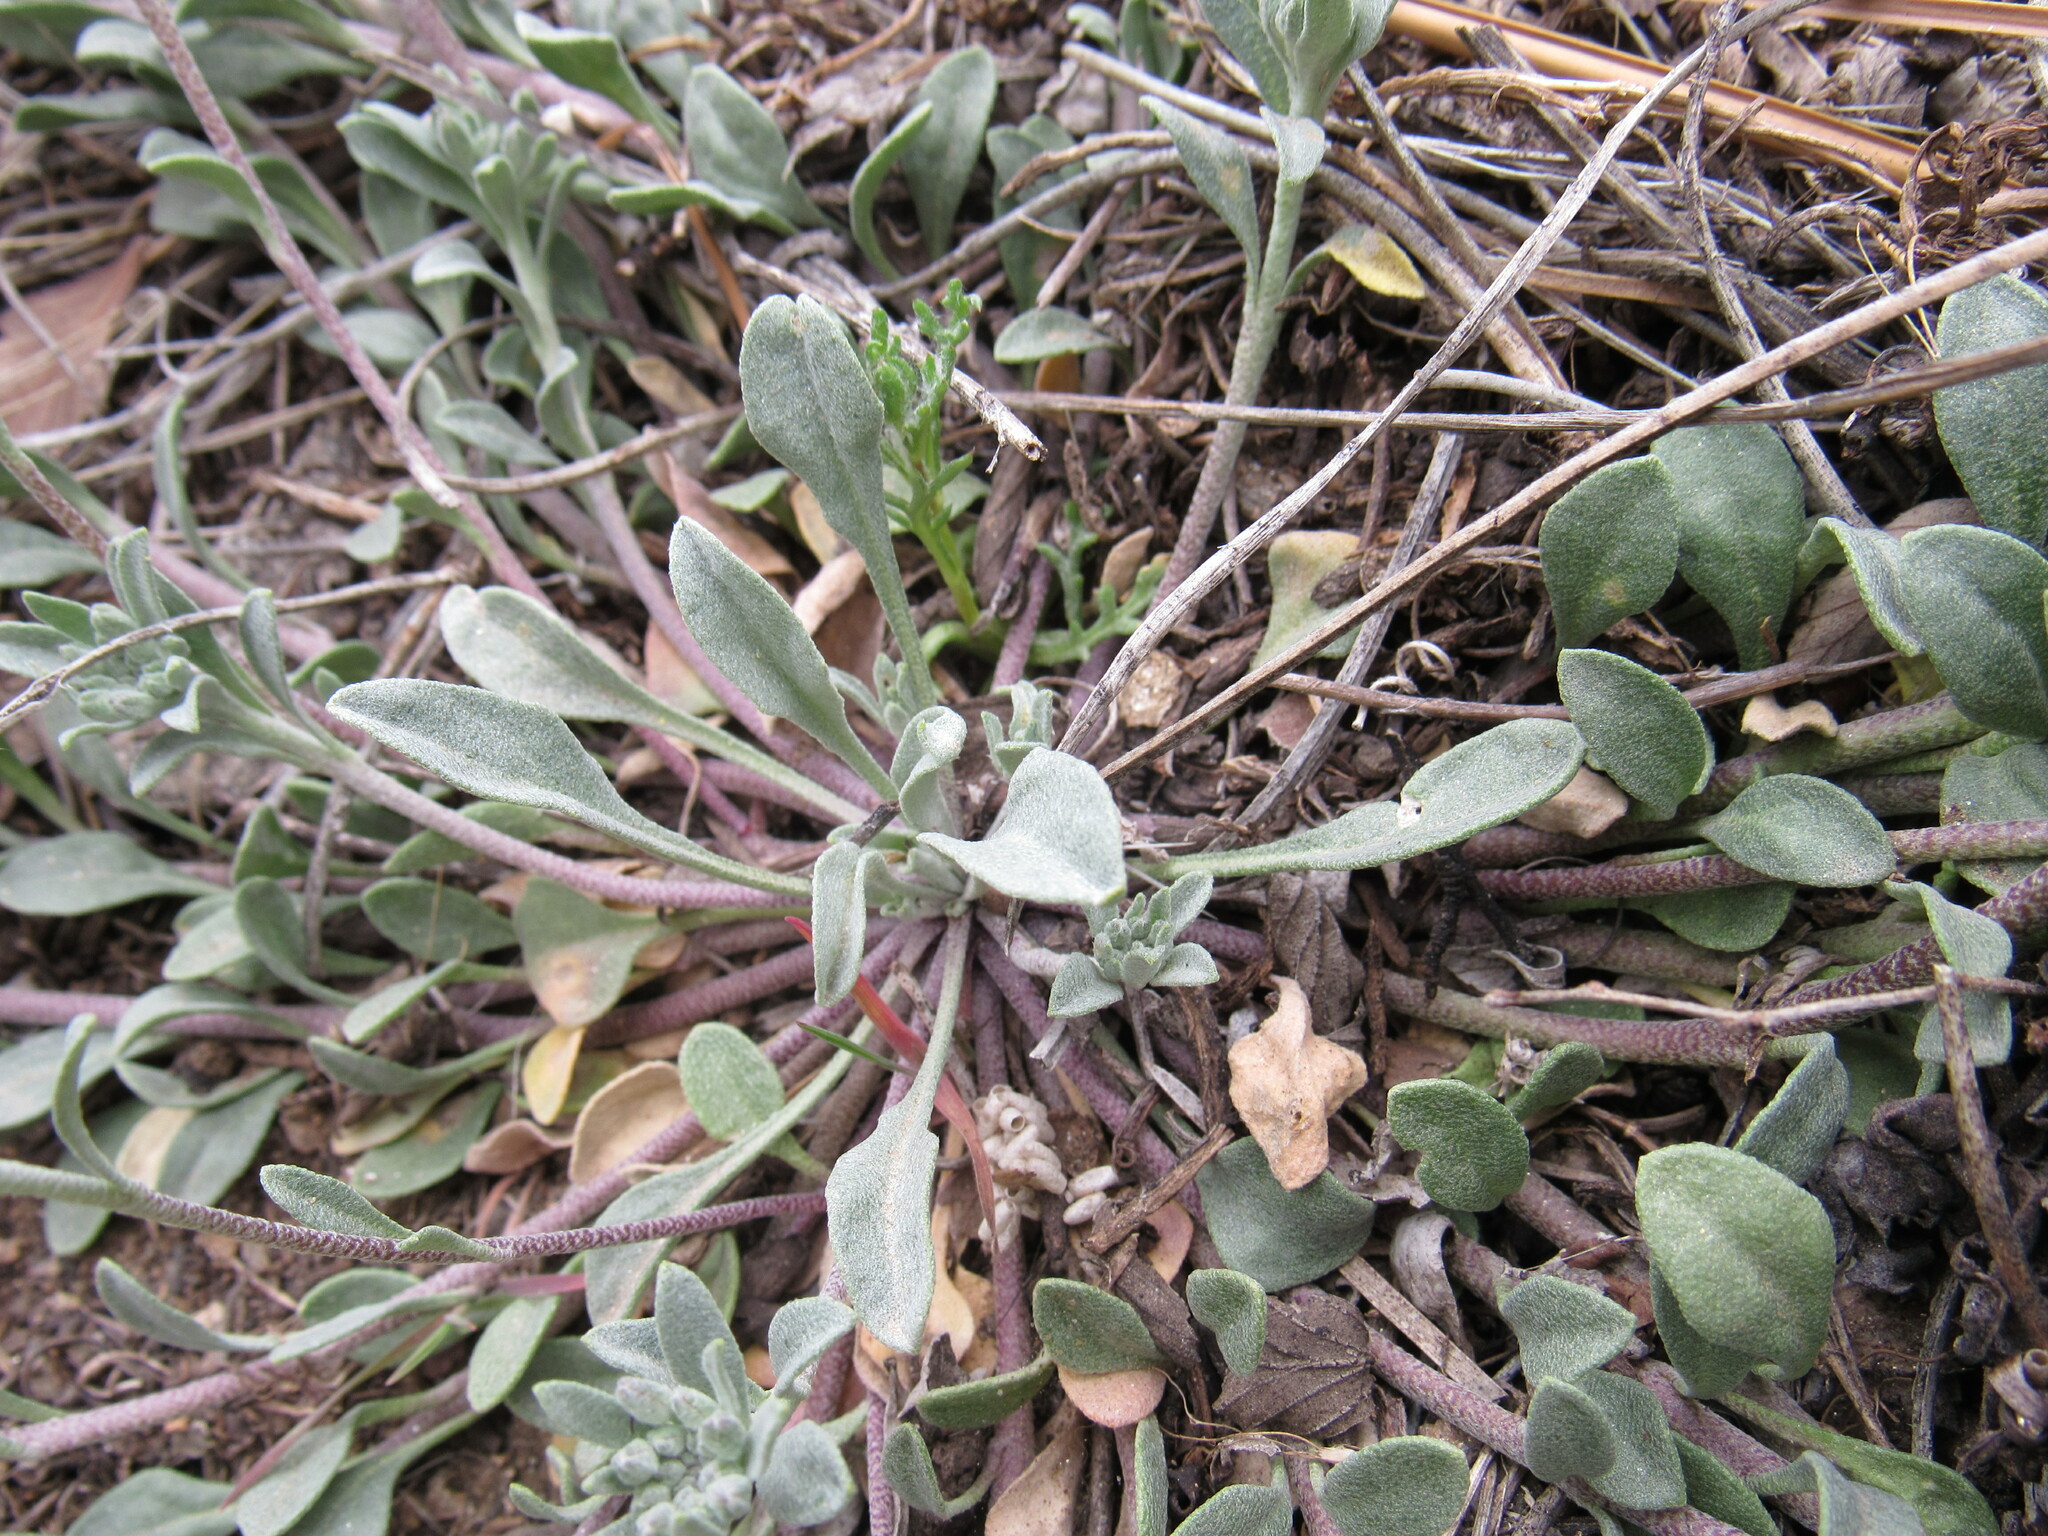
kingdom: Plantae
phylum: Tracheophyta
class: Magnoliopsida
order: Brassicales
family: Brassicaceae
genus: Physaria
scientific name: Physaria montana
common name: Mountain bladderpod
